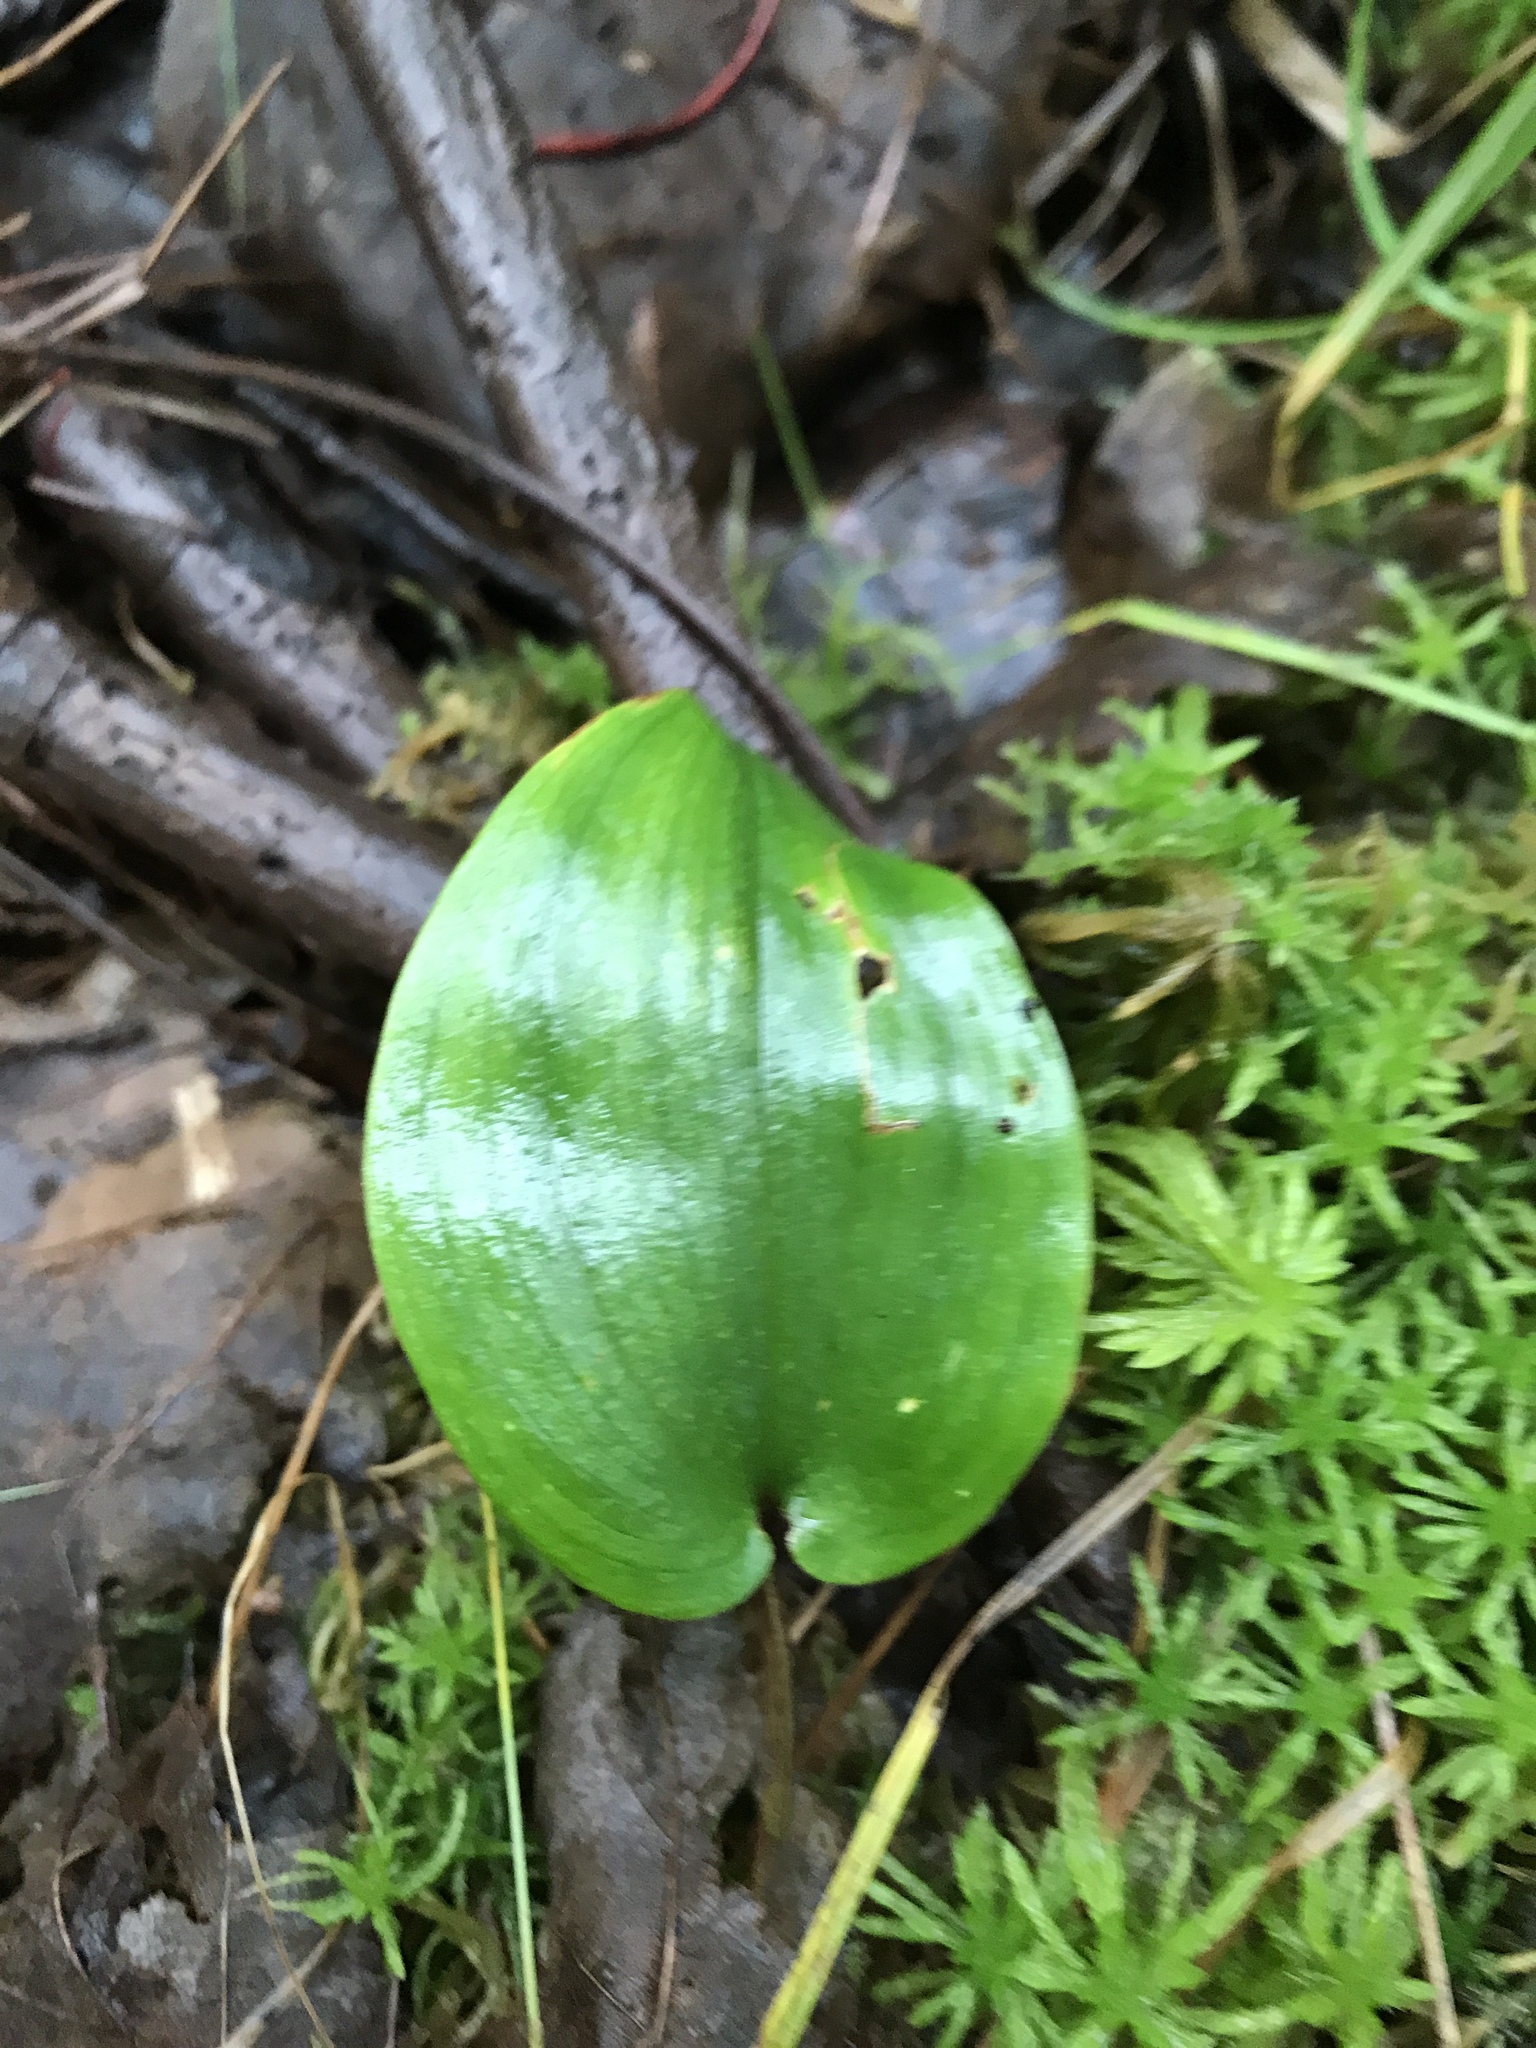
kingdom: Plantae
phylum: Tracheophyta
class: Liliopsida
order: Asparagales
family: Asparagaceae
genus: Maianthemum
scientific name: Maianthemum canadense
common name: False lily-of-the-valley
